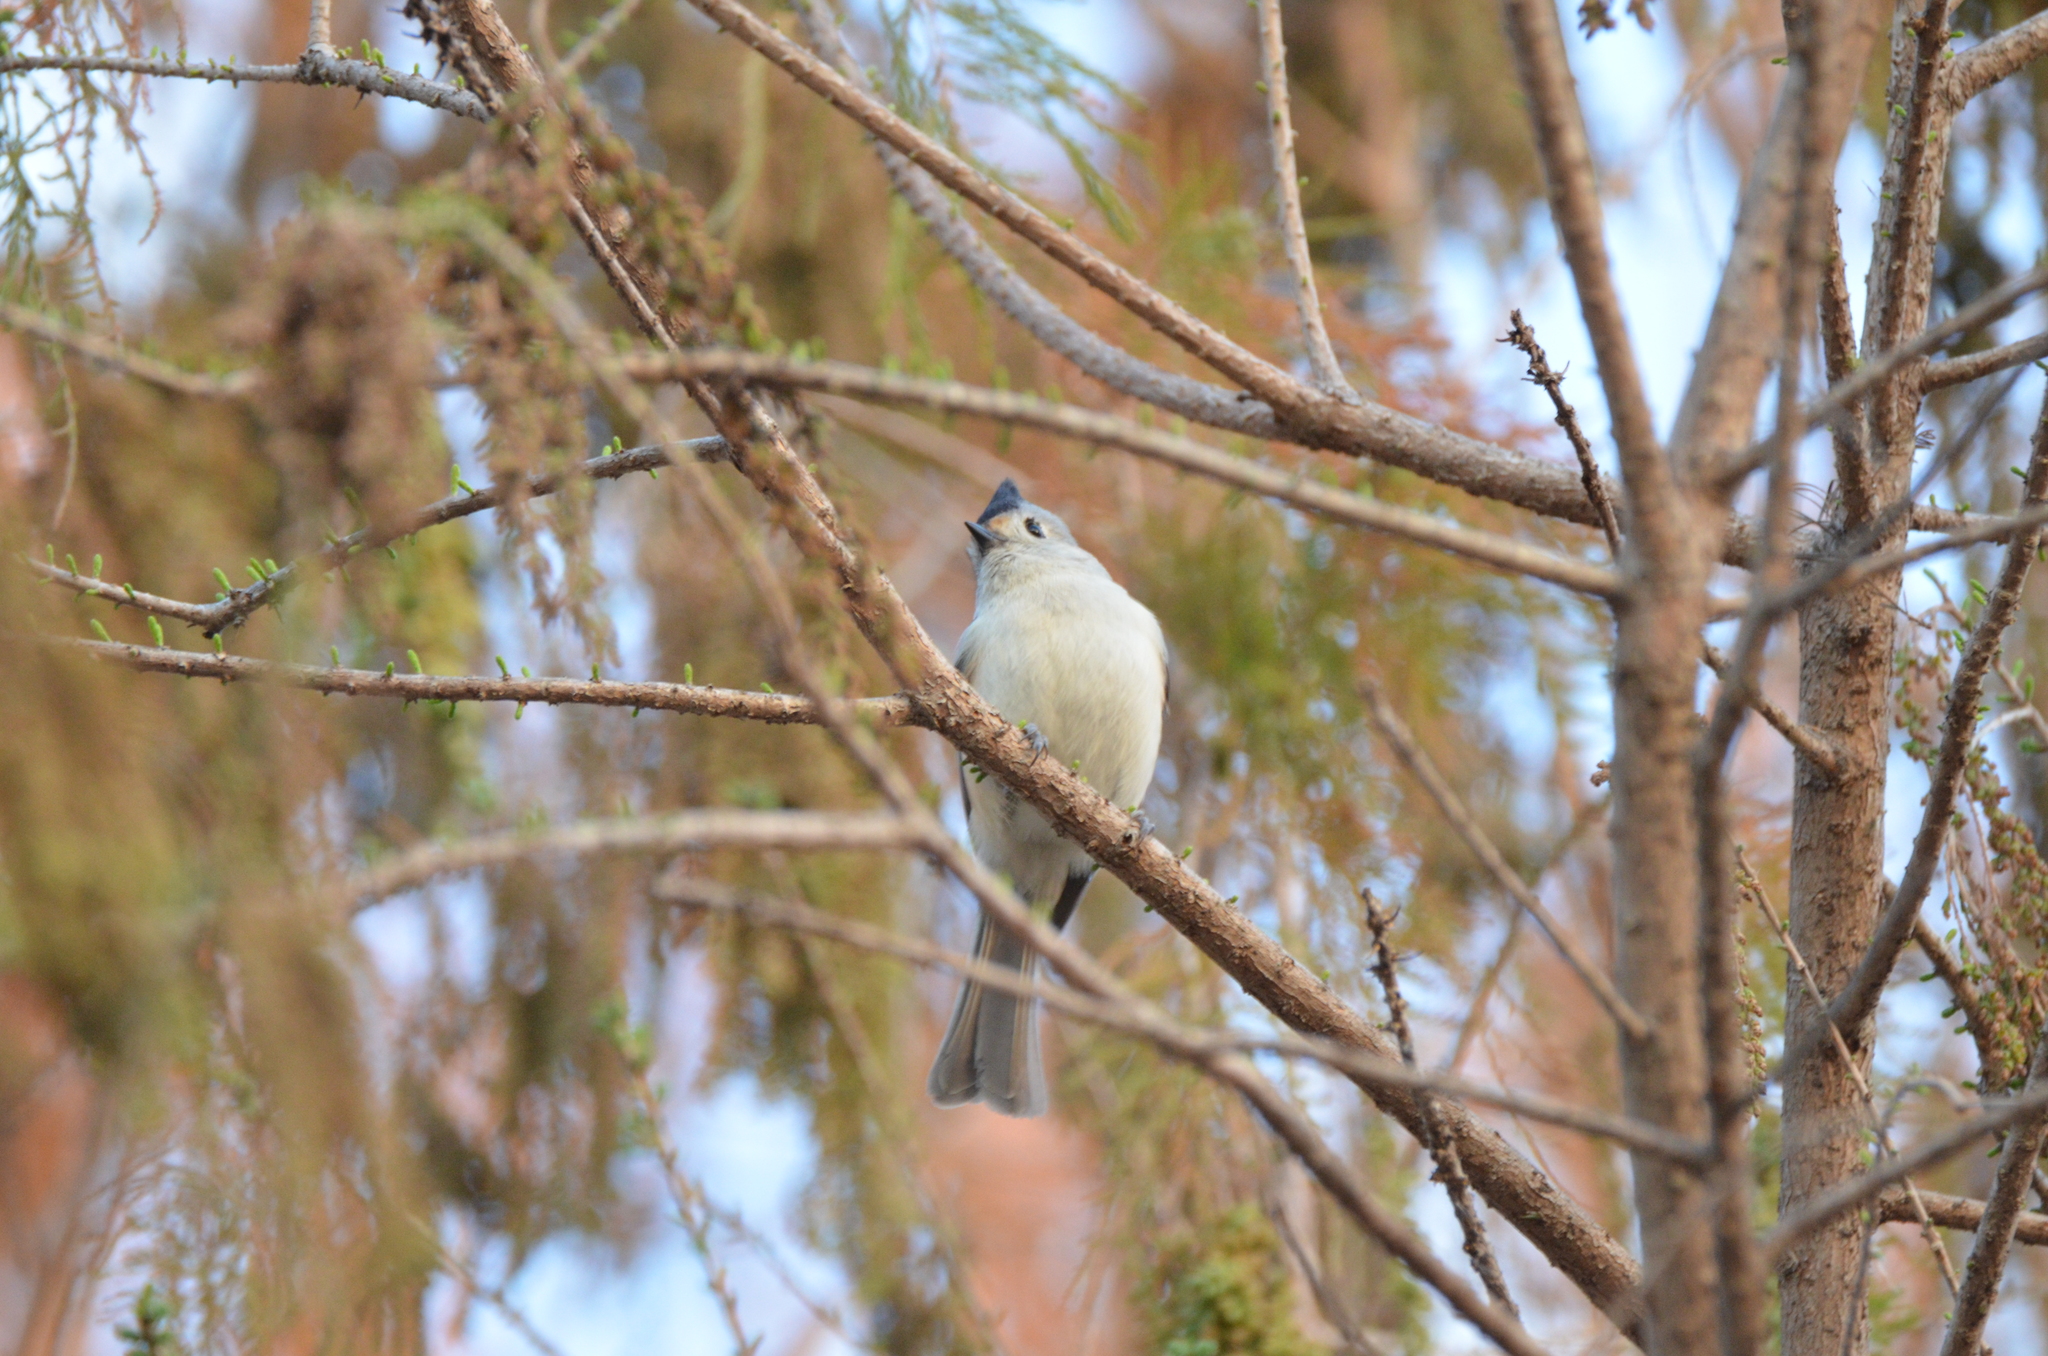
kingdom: Animalia
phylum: Chordata
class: Aves
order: Passeriformes
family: Paridae
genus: Baeolophus
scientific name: Baeolophus atricristatus
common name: Black-crested titmouse
